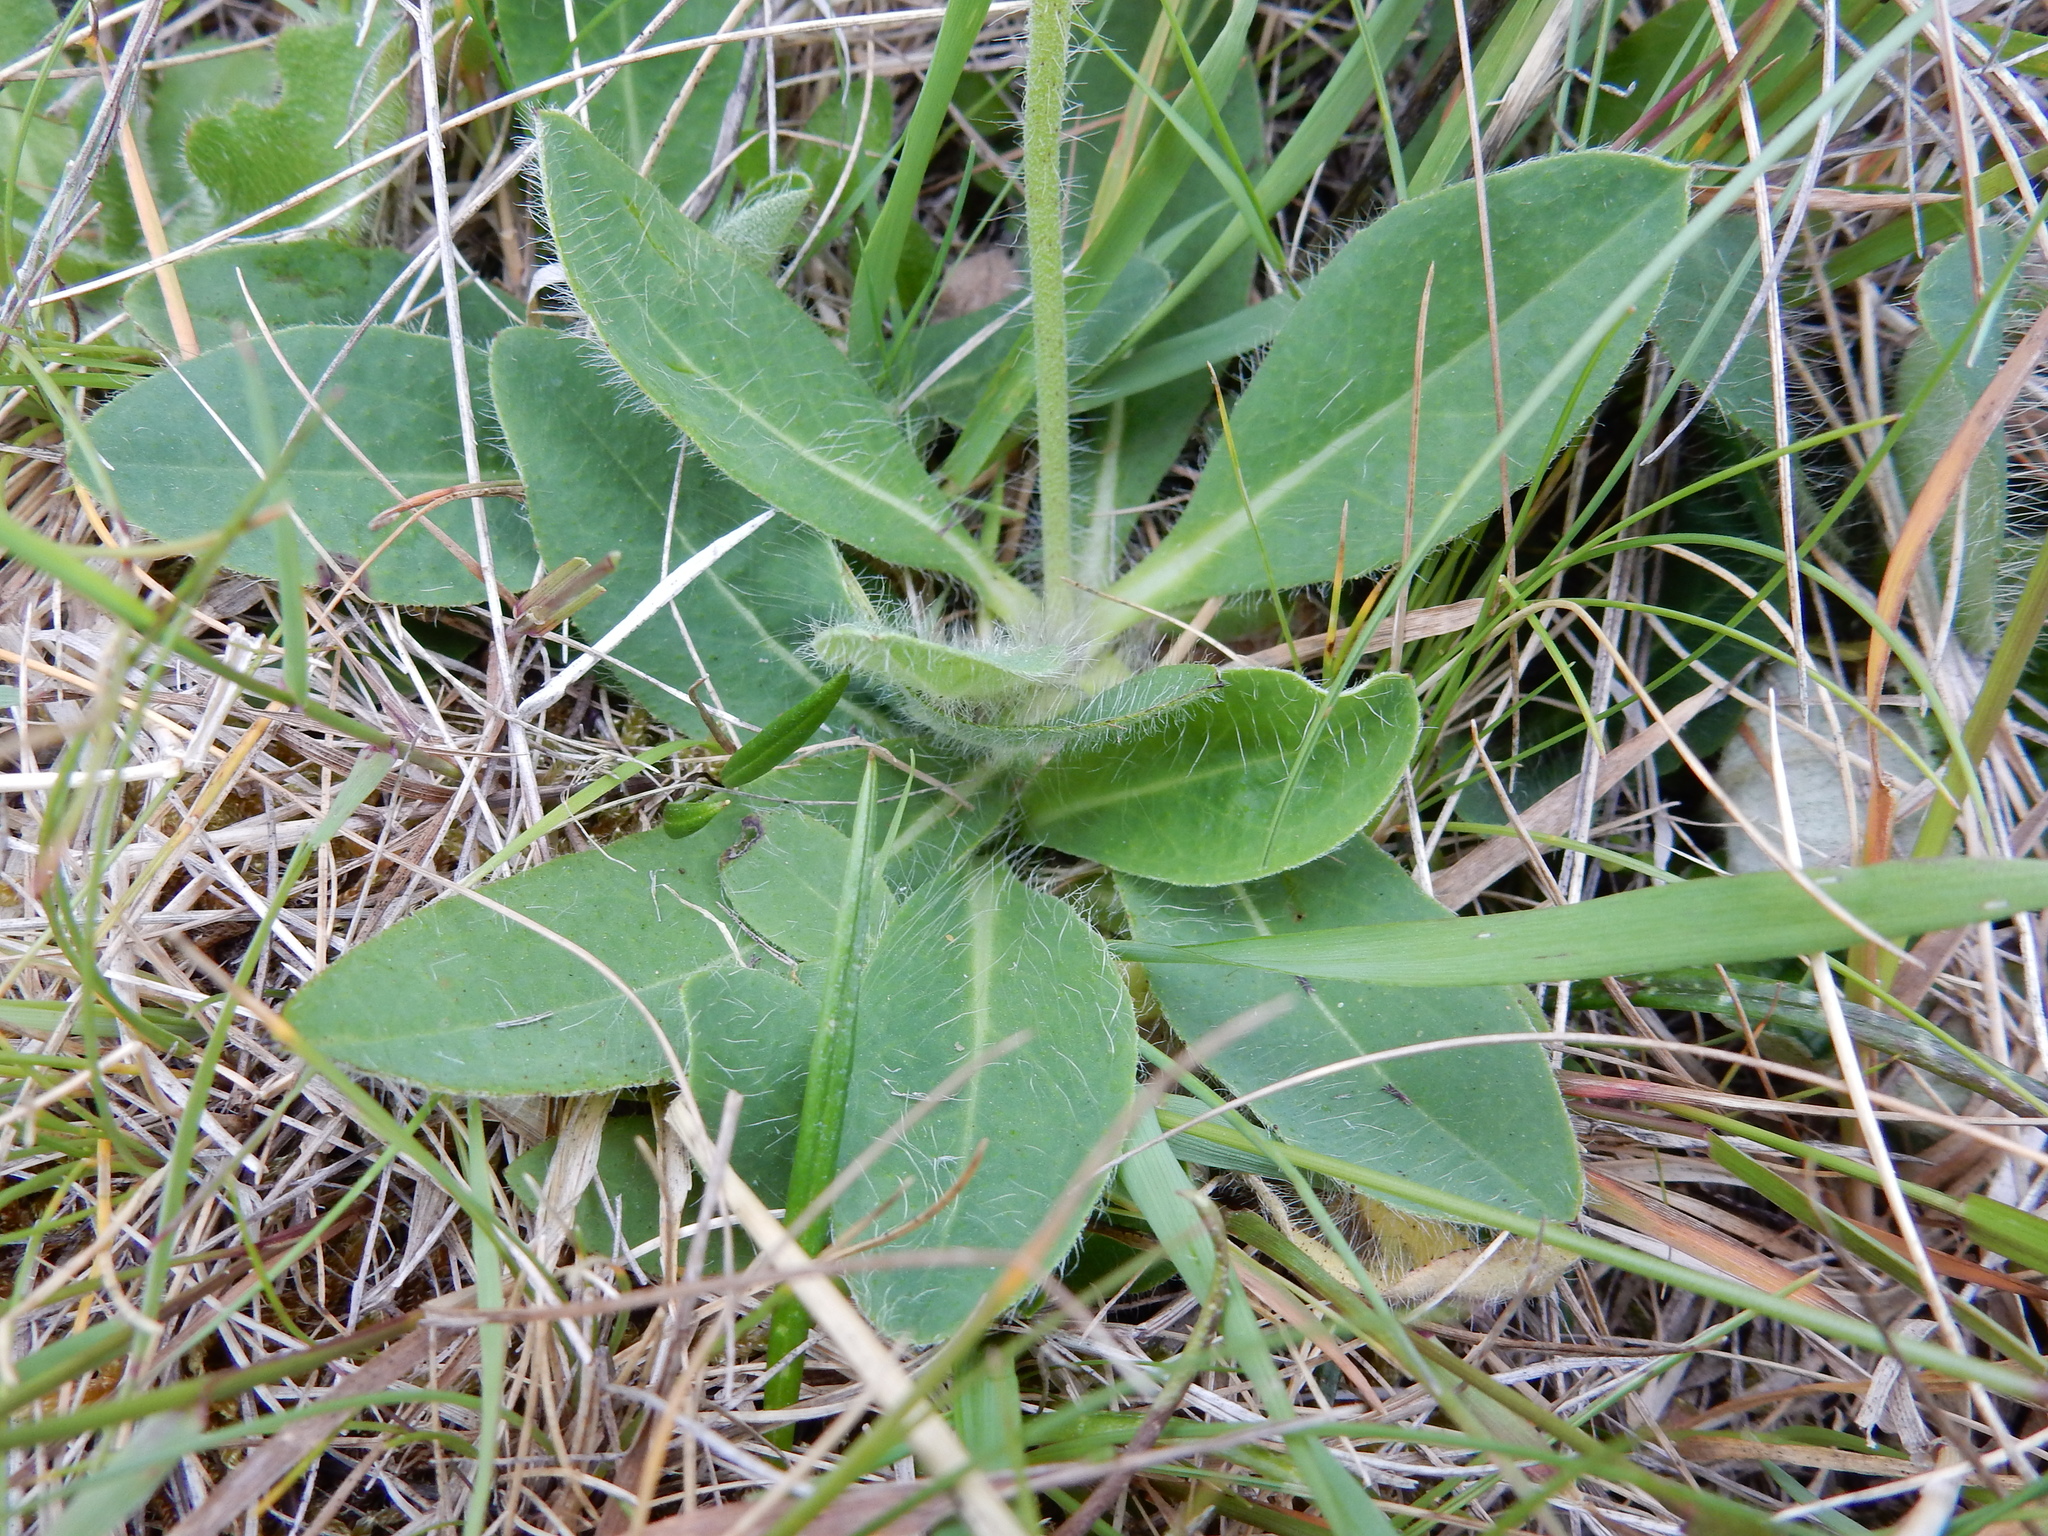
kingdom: Plantae
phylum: Tracheophyta
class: Magnoliopsida
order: Asterales
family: Asteraceae
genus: Pilosella
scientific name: Pilosella aurantiaca
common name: Fox-and-cubs
